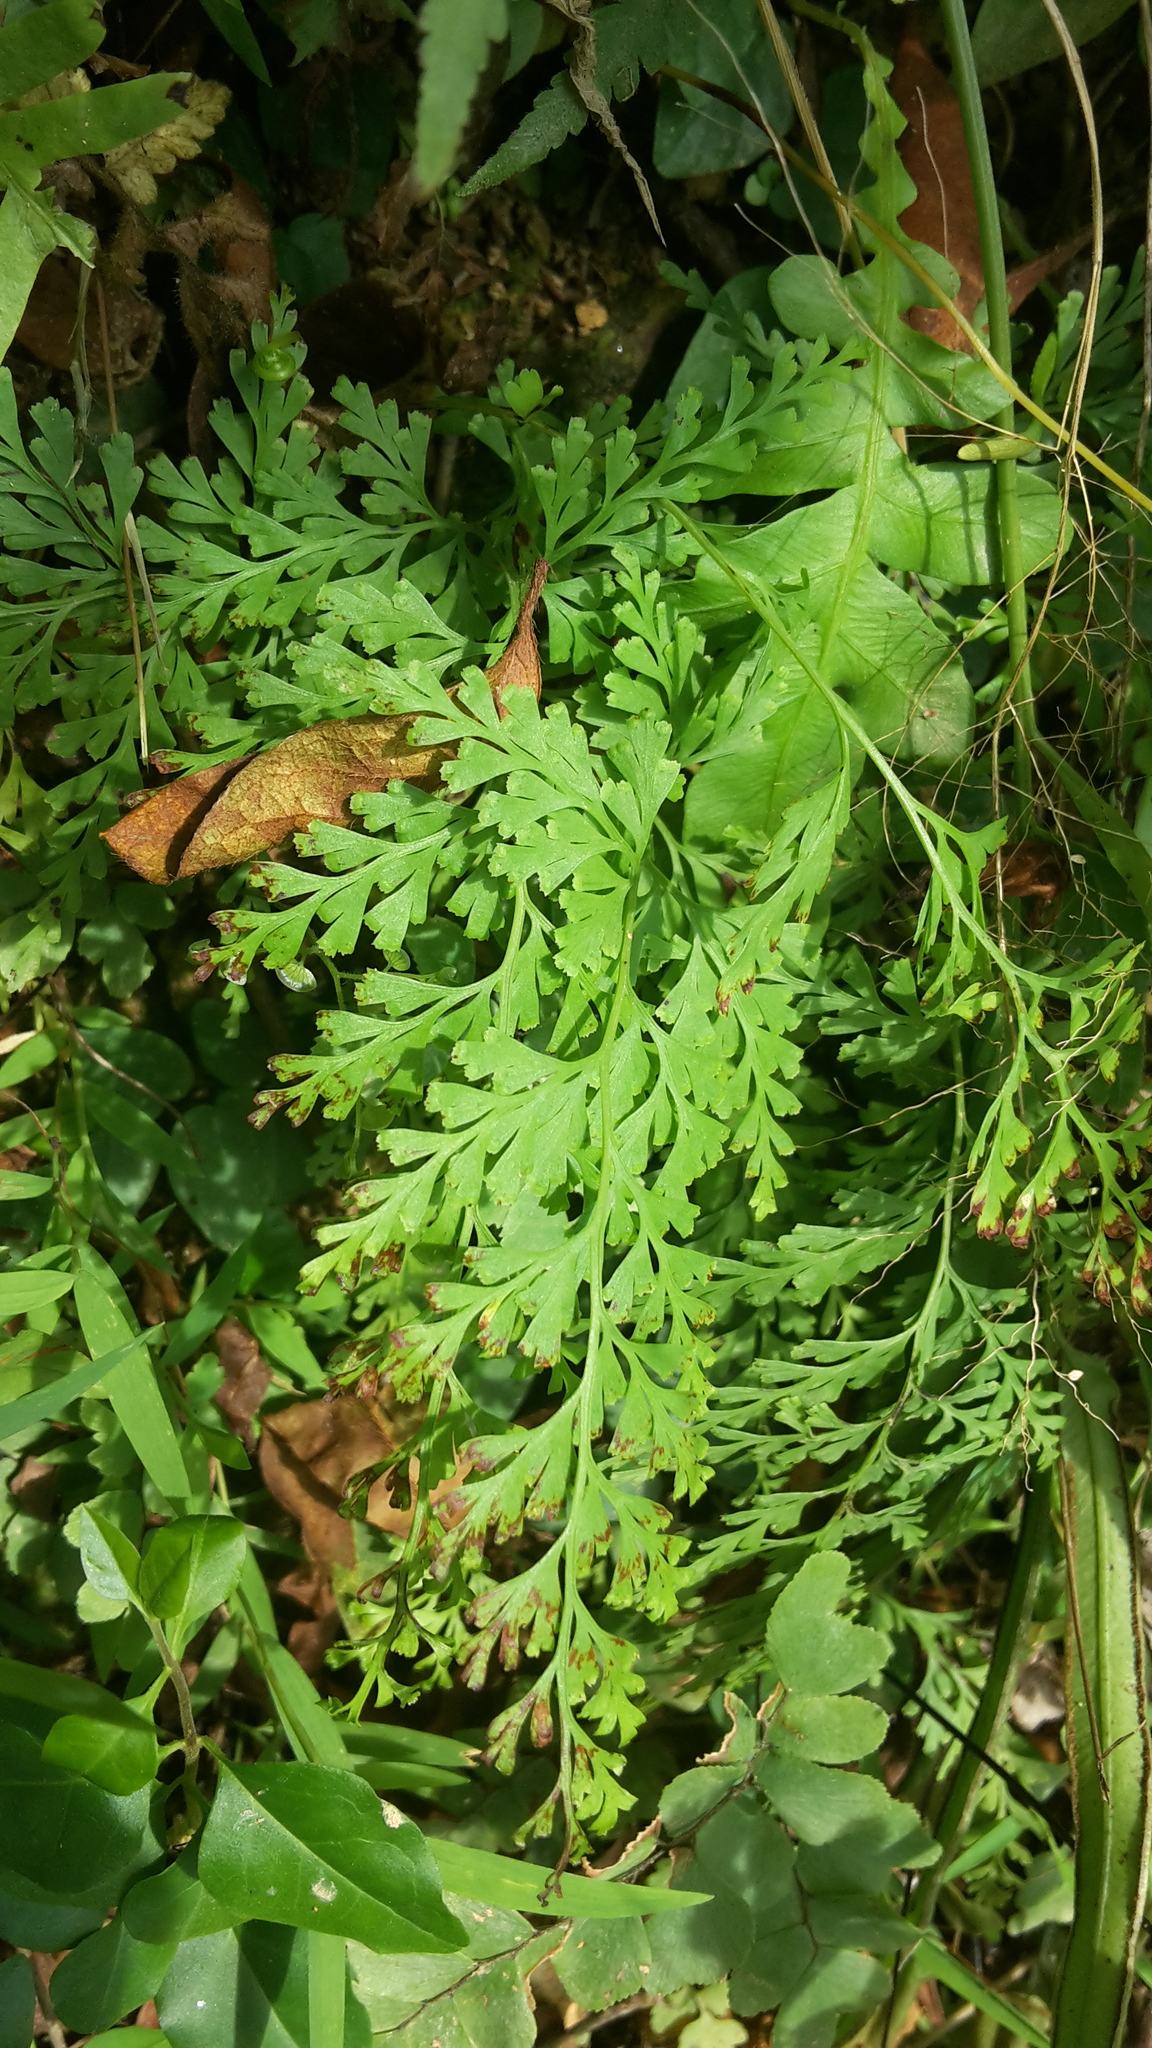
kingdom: Plantae
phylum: Tracheophyta
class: Polypodiopsida
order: Polypodiales
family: Lindsaeaceae
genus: Odontosoria
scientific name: Odontosoria chinensis
